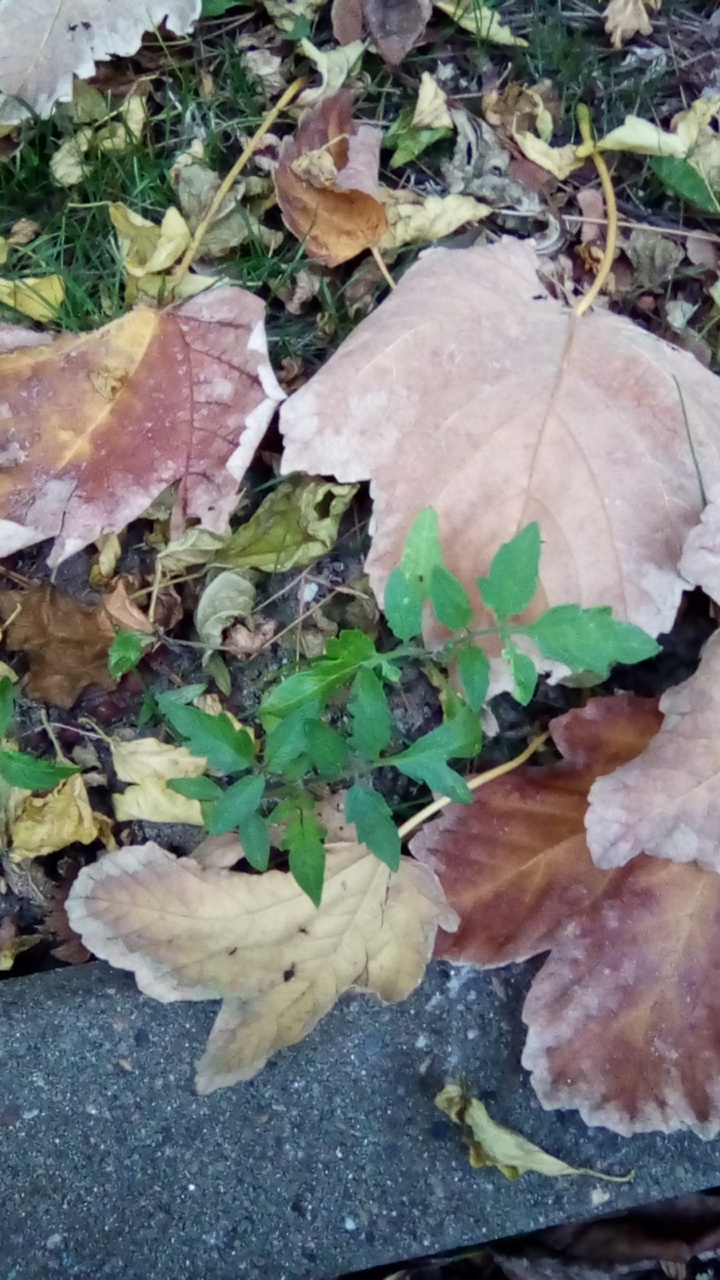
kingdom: Plantae
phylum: Tracheophyta
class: Magnoliopsida
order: Solanales
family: Solanaceae
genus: Solanum
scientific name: Solanum lycopersicum
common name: Garden tomato
